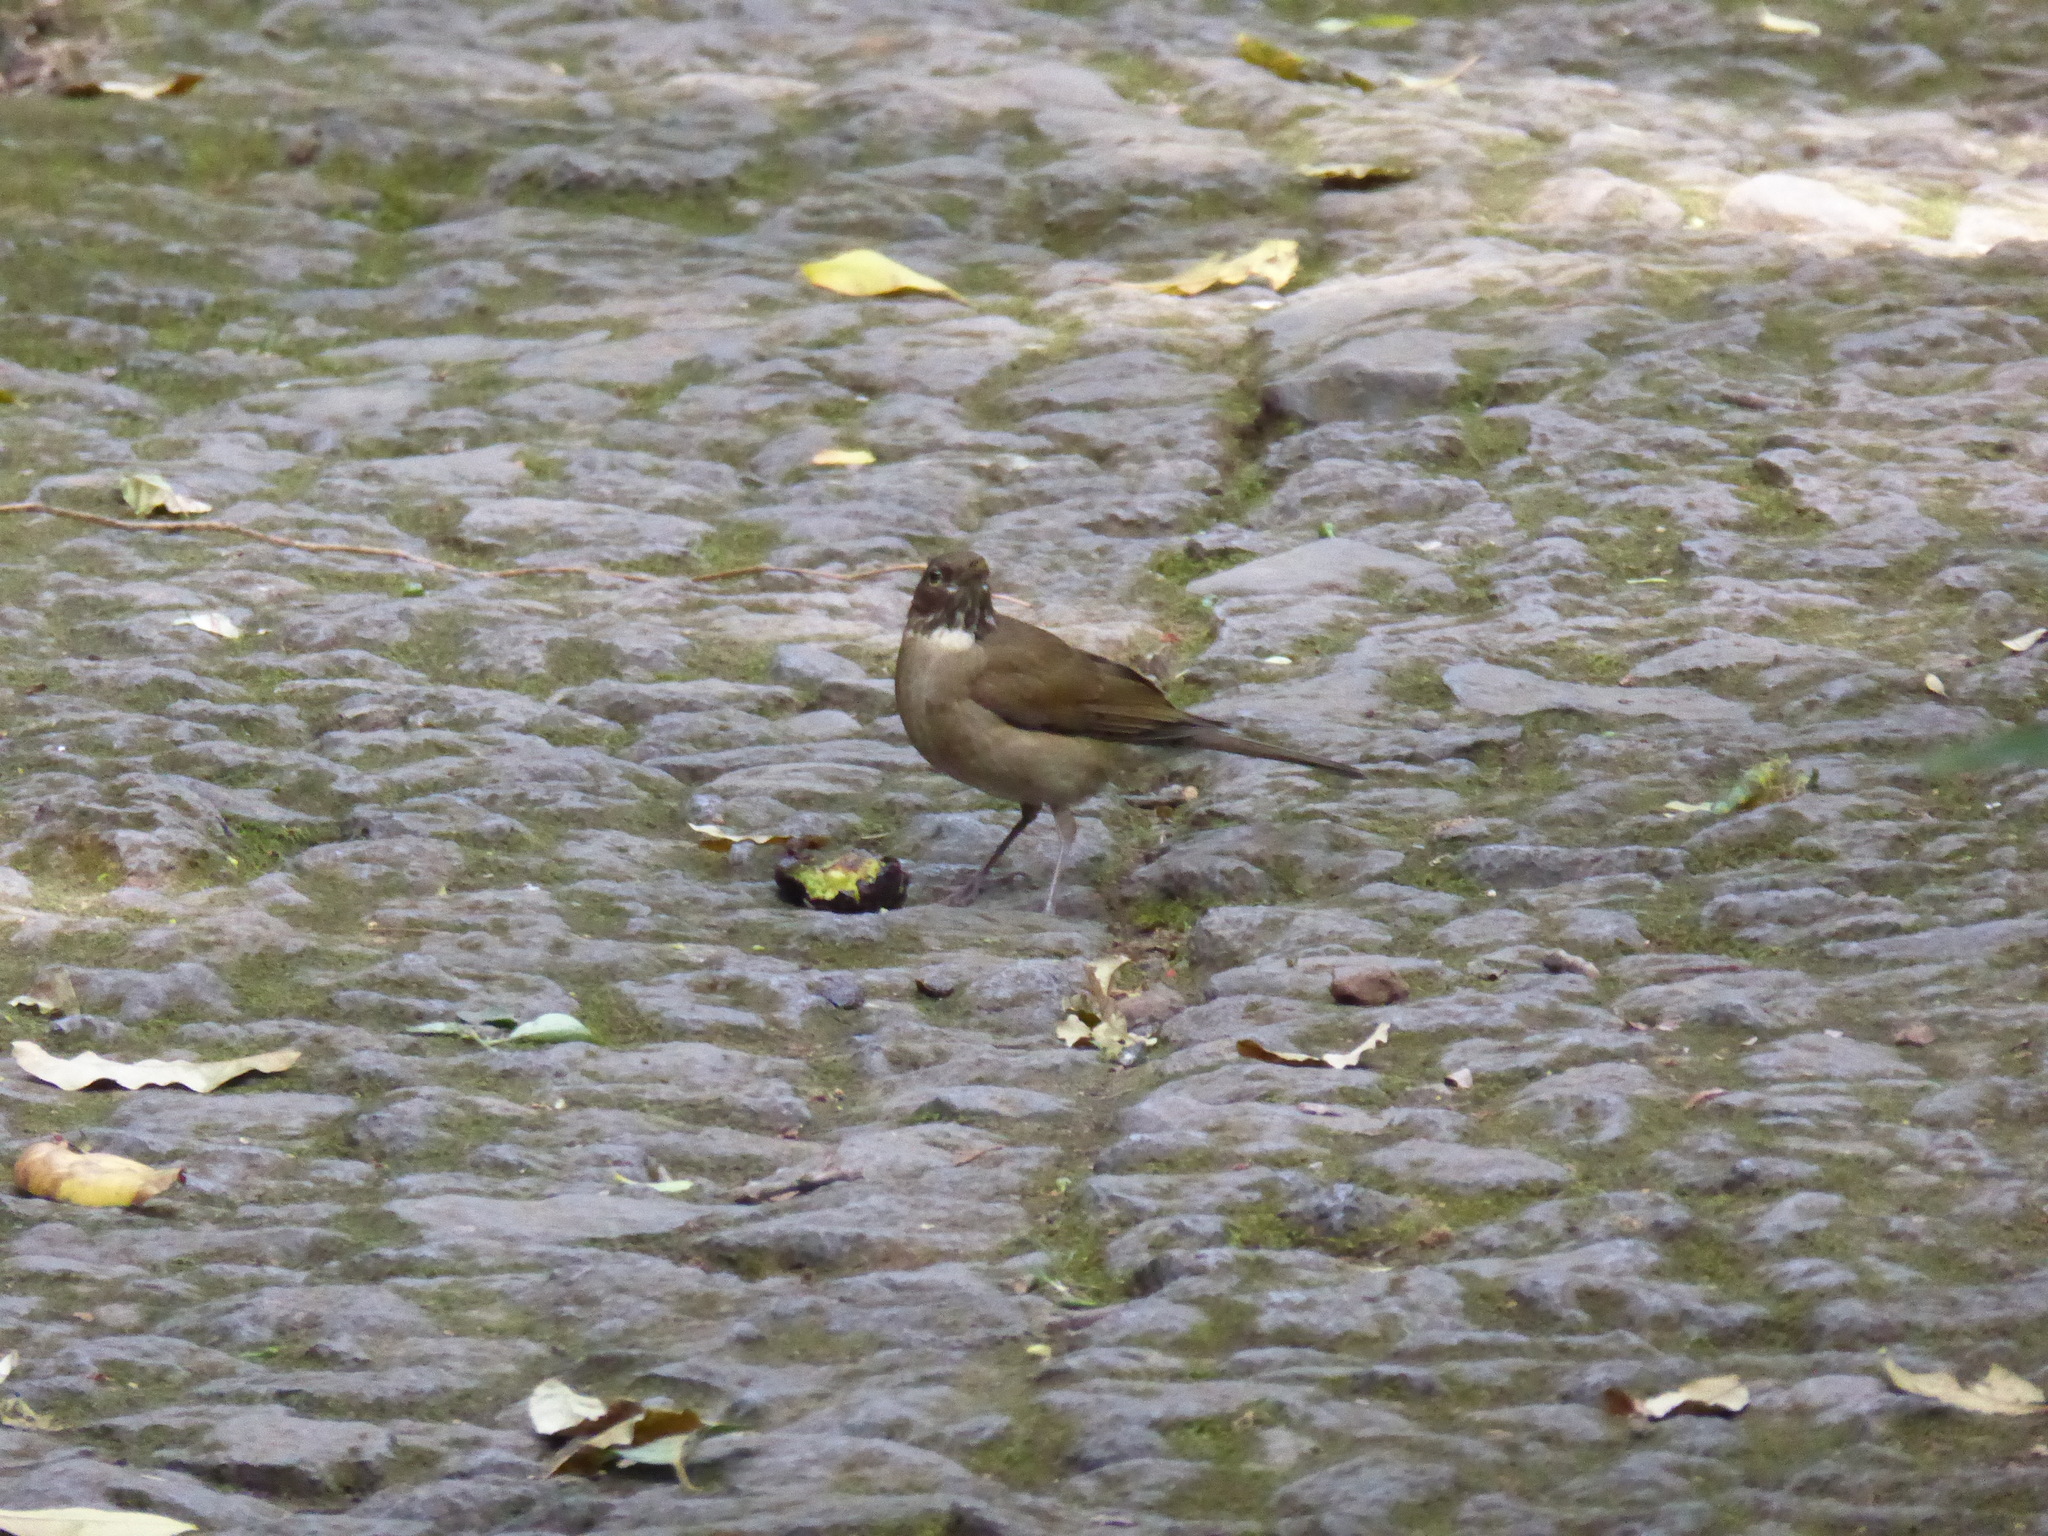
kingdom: Animalia
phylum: Chordata
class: Aves
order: Passeriformes
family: Turdidae
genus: Turdus
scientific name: Turdus assimilis
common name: White-throated thrush
